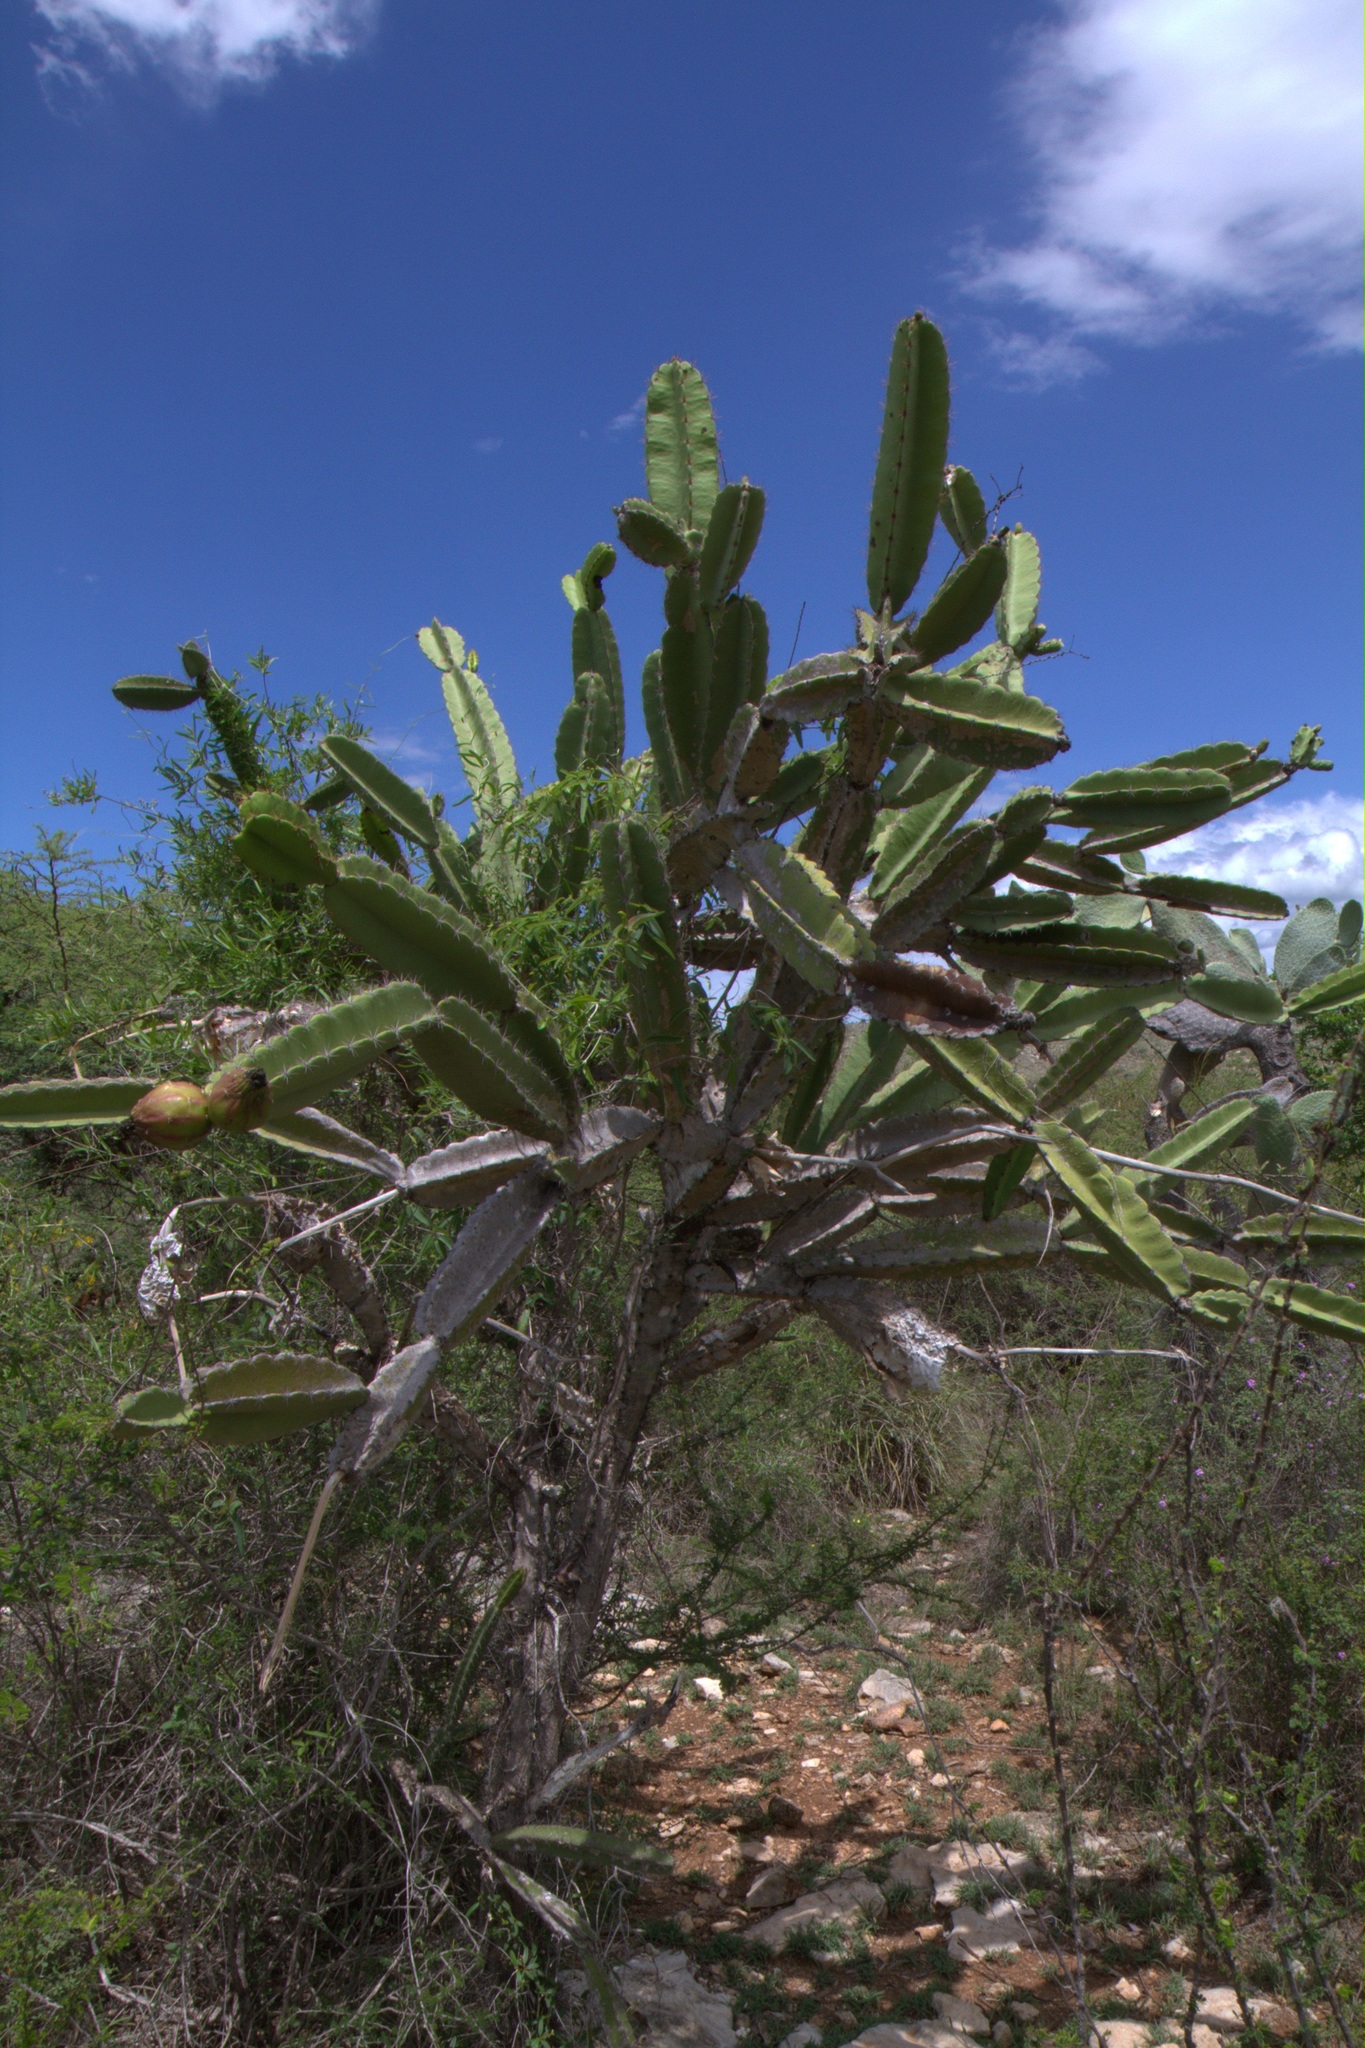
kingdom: Plantae
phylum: Tracheophyta
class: Magnoliopsida
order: Caryophyllales
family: Cactaceae
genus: Leptocereus
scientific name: Leptocereus paniculatus
